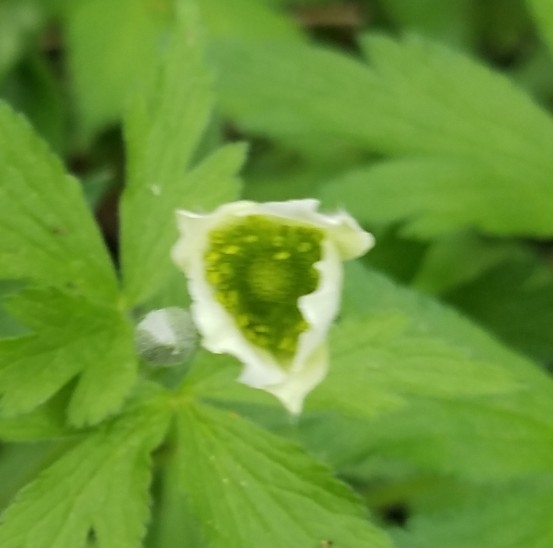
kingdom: Plantae
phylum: Tracheophyta
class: Magnoliopsida
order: Ranunculales
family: Ranunculaceae
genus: Anemone
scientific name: Anemone virginiana
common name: Tall anemone
